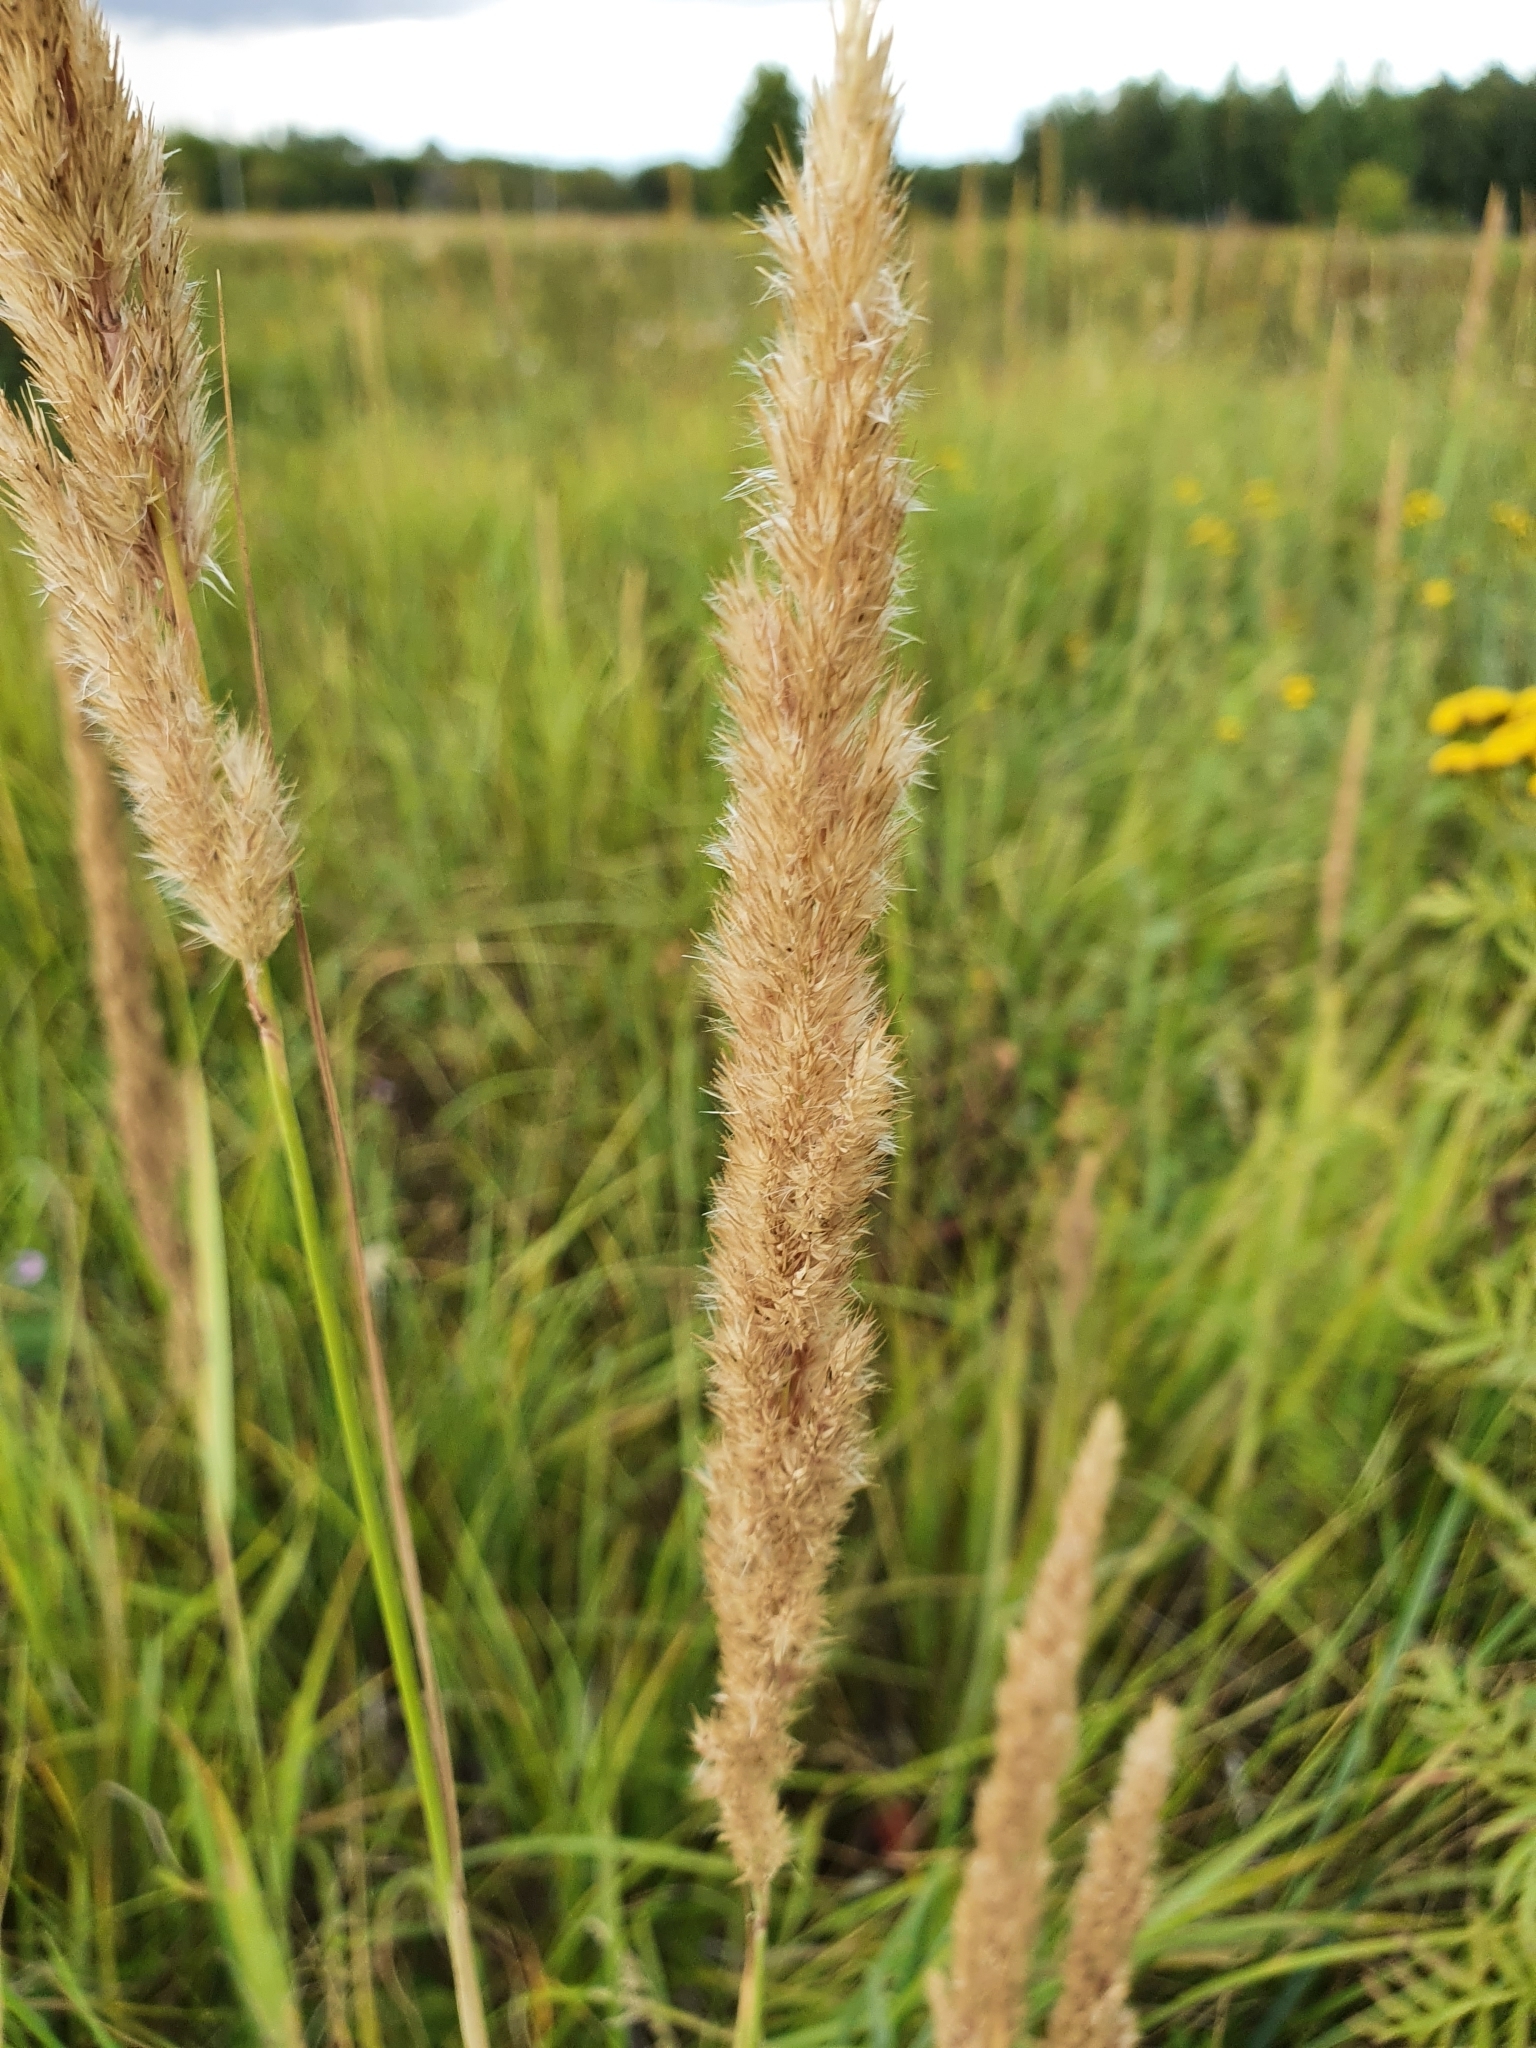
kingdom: Plantae
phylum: Tracheophyta
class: Liliopsida
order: Poales
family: Poaceae
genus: Calamagrostis
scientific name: Calamagrostis epigejos
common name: Wood small-reed
